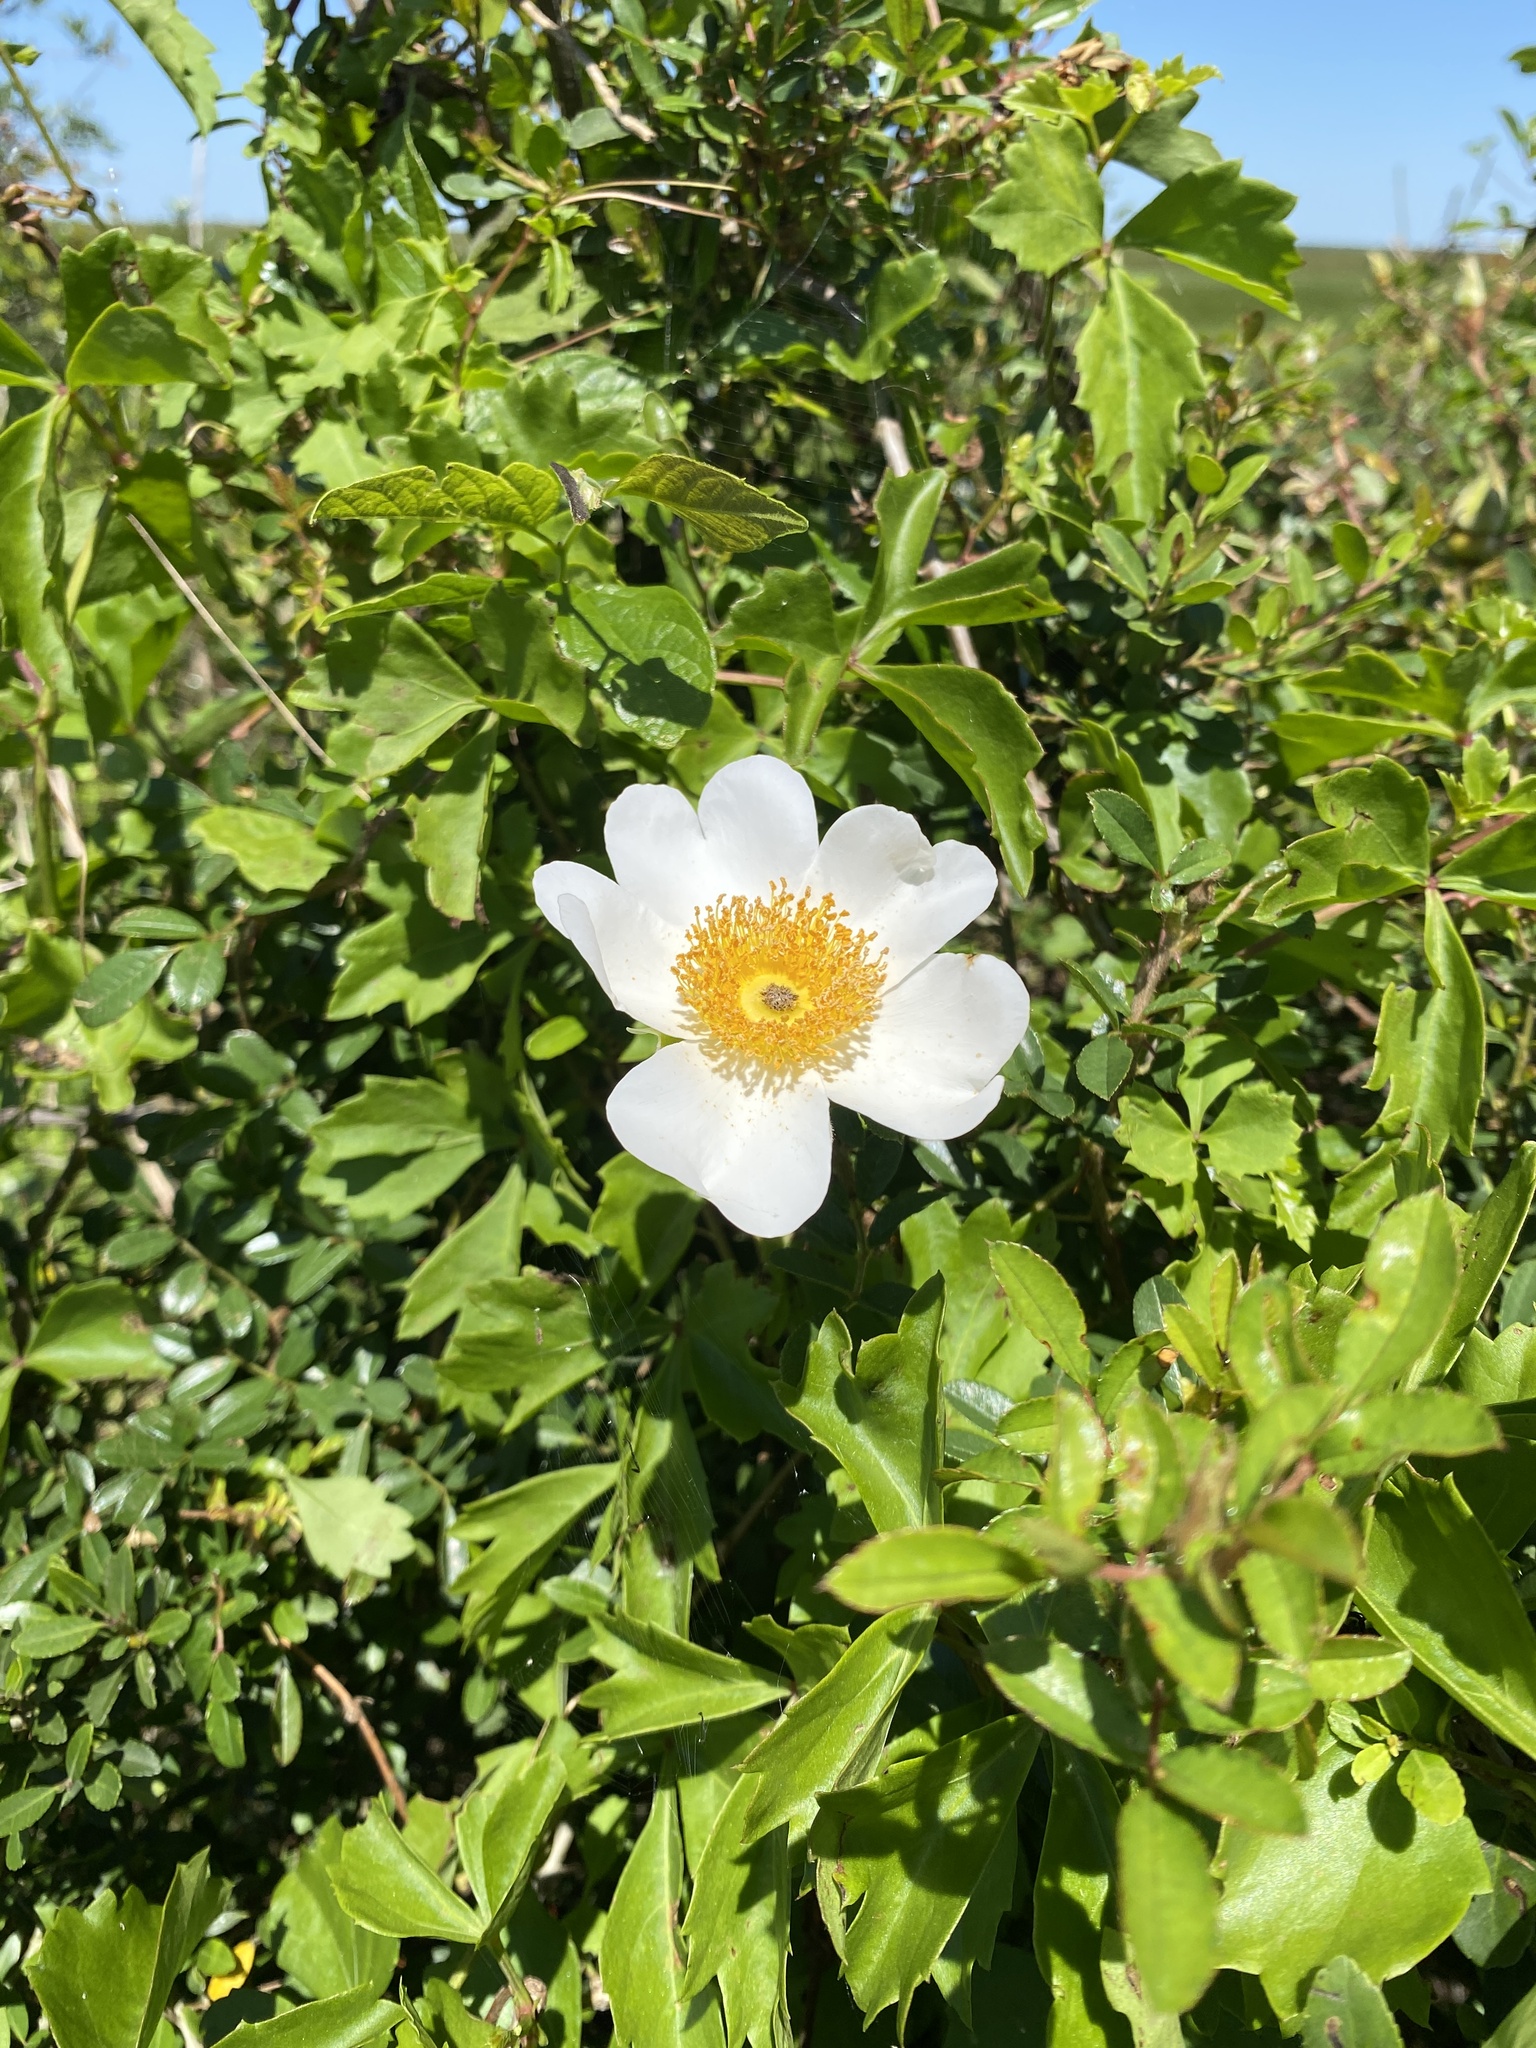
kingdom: Plantae
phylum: Tracheophyta
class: Magnoliopsida
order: Rosales
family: Rosaceae
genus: Rosa
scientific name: Rosa bracteata
